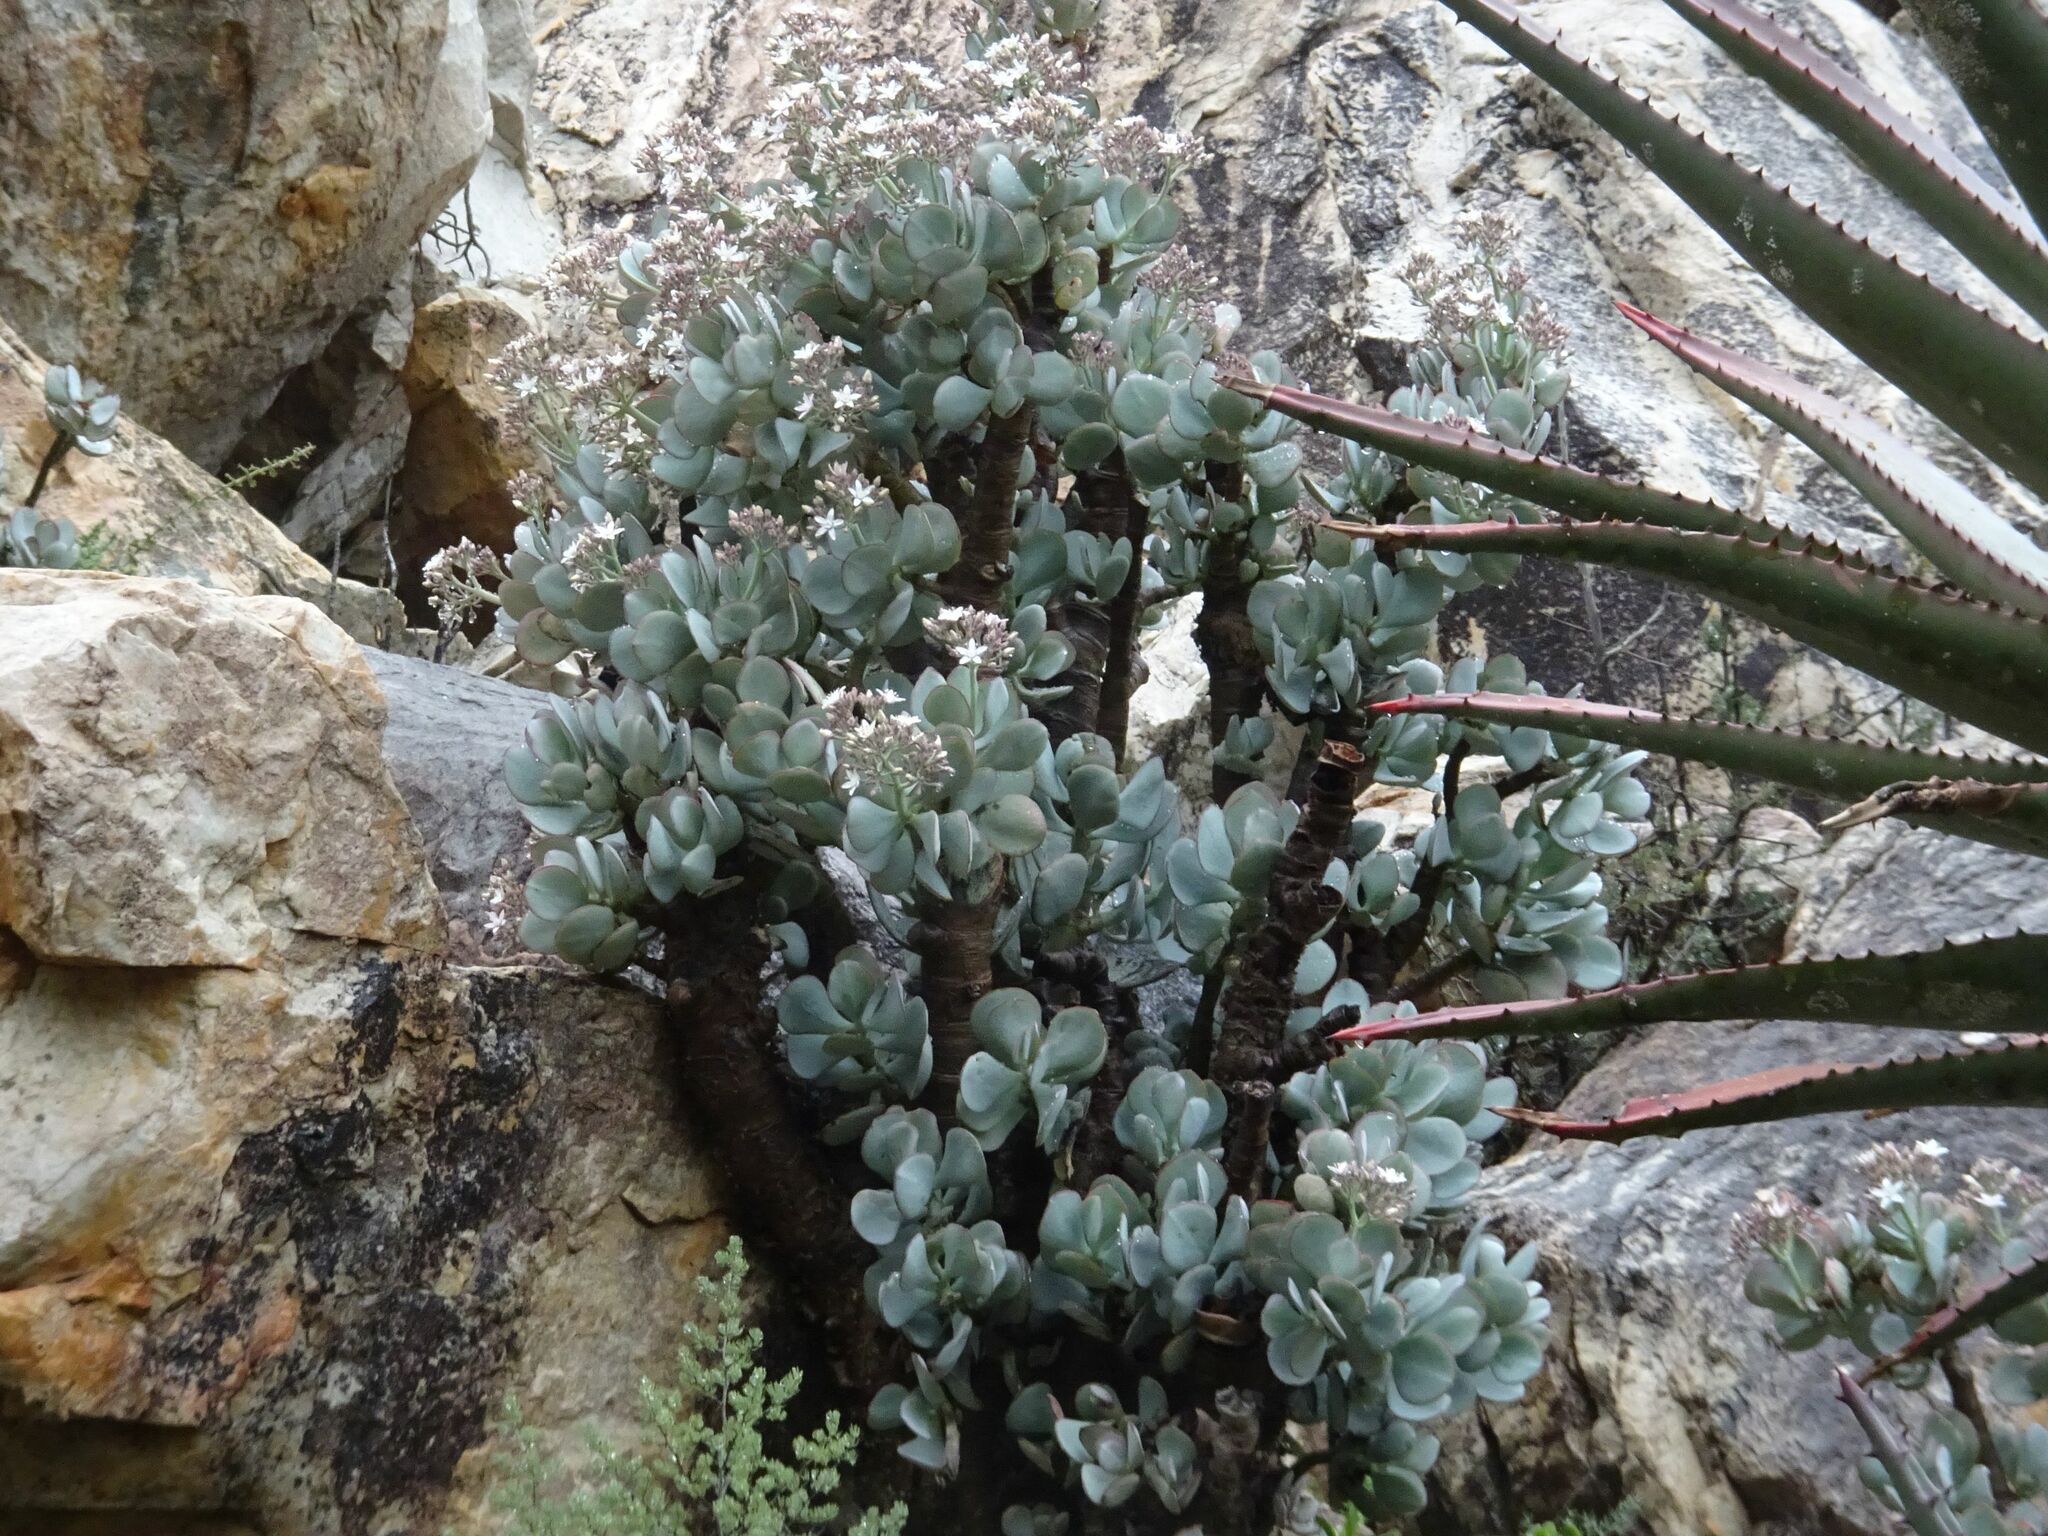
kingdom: Plantae
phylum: Tracheophyta
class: Magnoliopsida
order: Saxifragales
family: Crassulaceae
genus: Crassula
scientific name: Crassula arborescens
